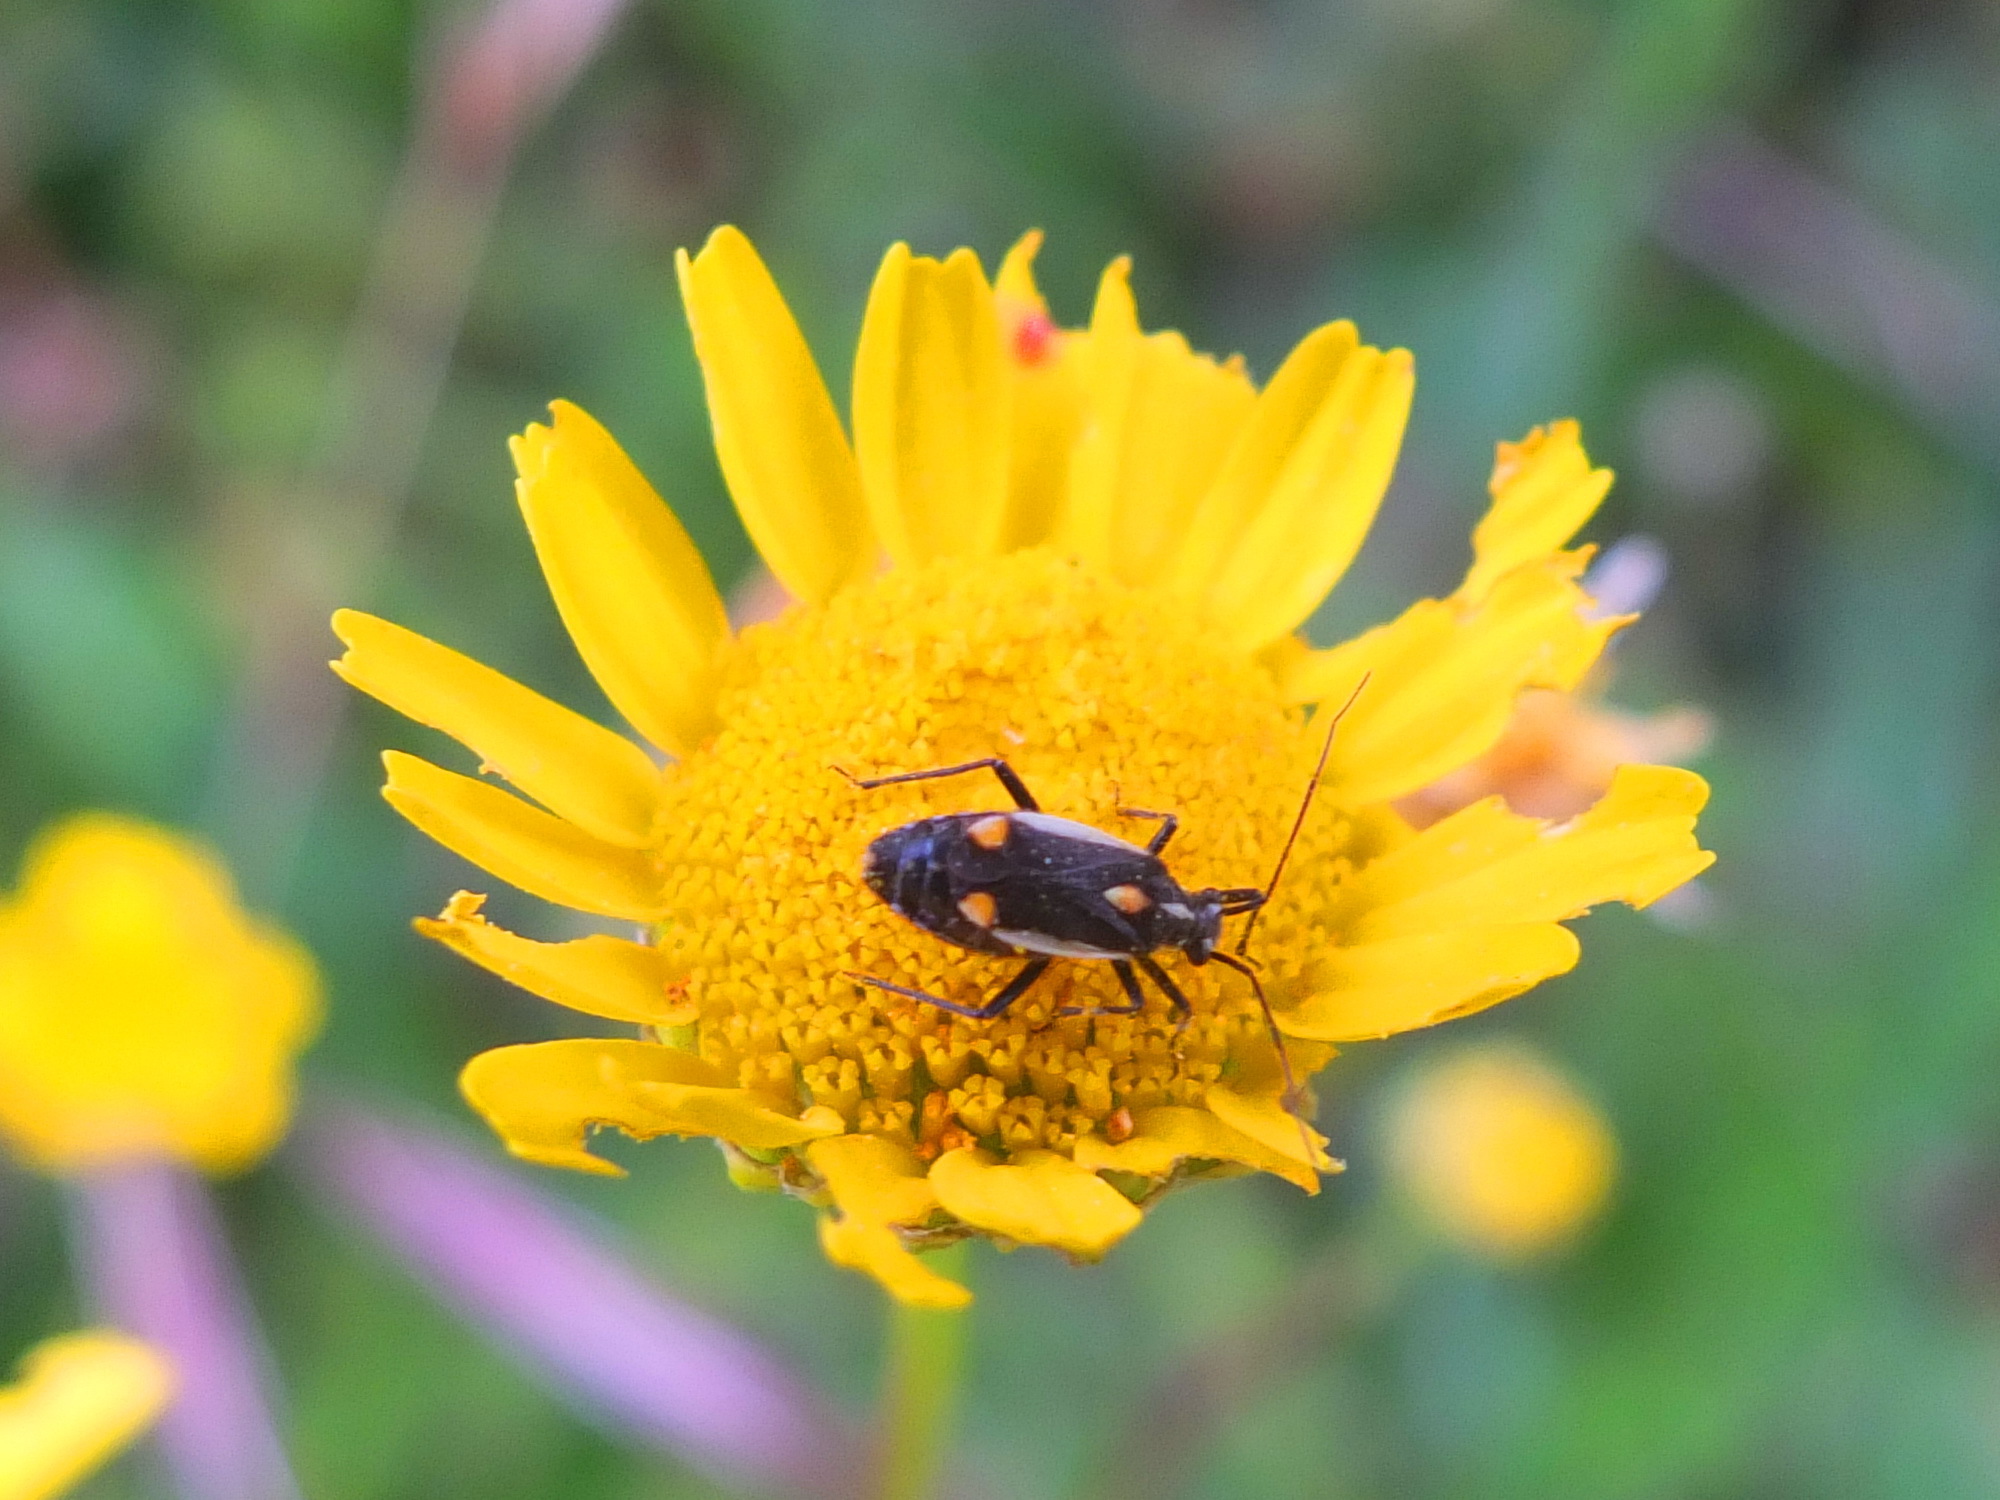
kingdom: Animalia
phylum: Arthropoda
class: Insecta
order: Hemiptera
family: Miridae
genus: Capsodes
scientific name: Capsodes vittiventris
